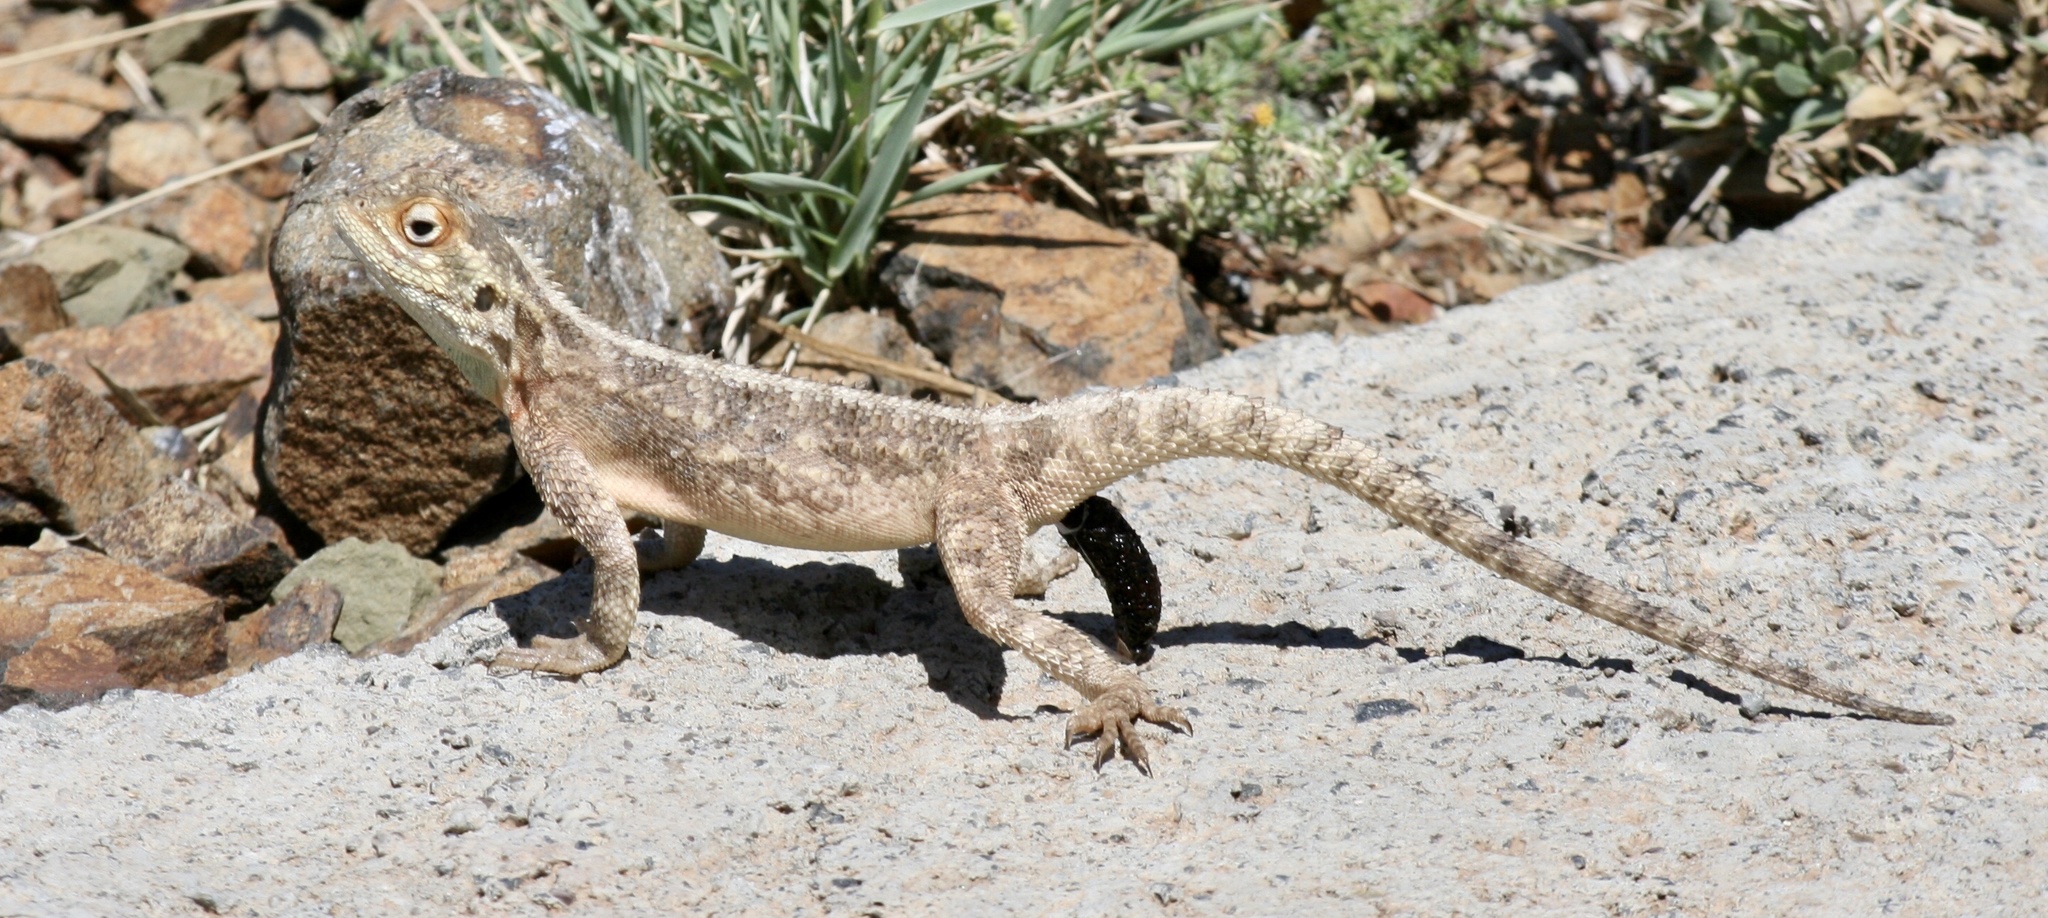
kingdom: Animalia
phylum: Chordata
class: Squamata
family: Agamidae
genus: Agama
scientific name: Agama aculeata
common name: Common ground agama
